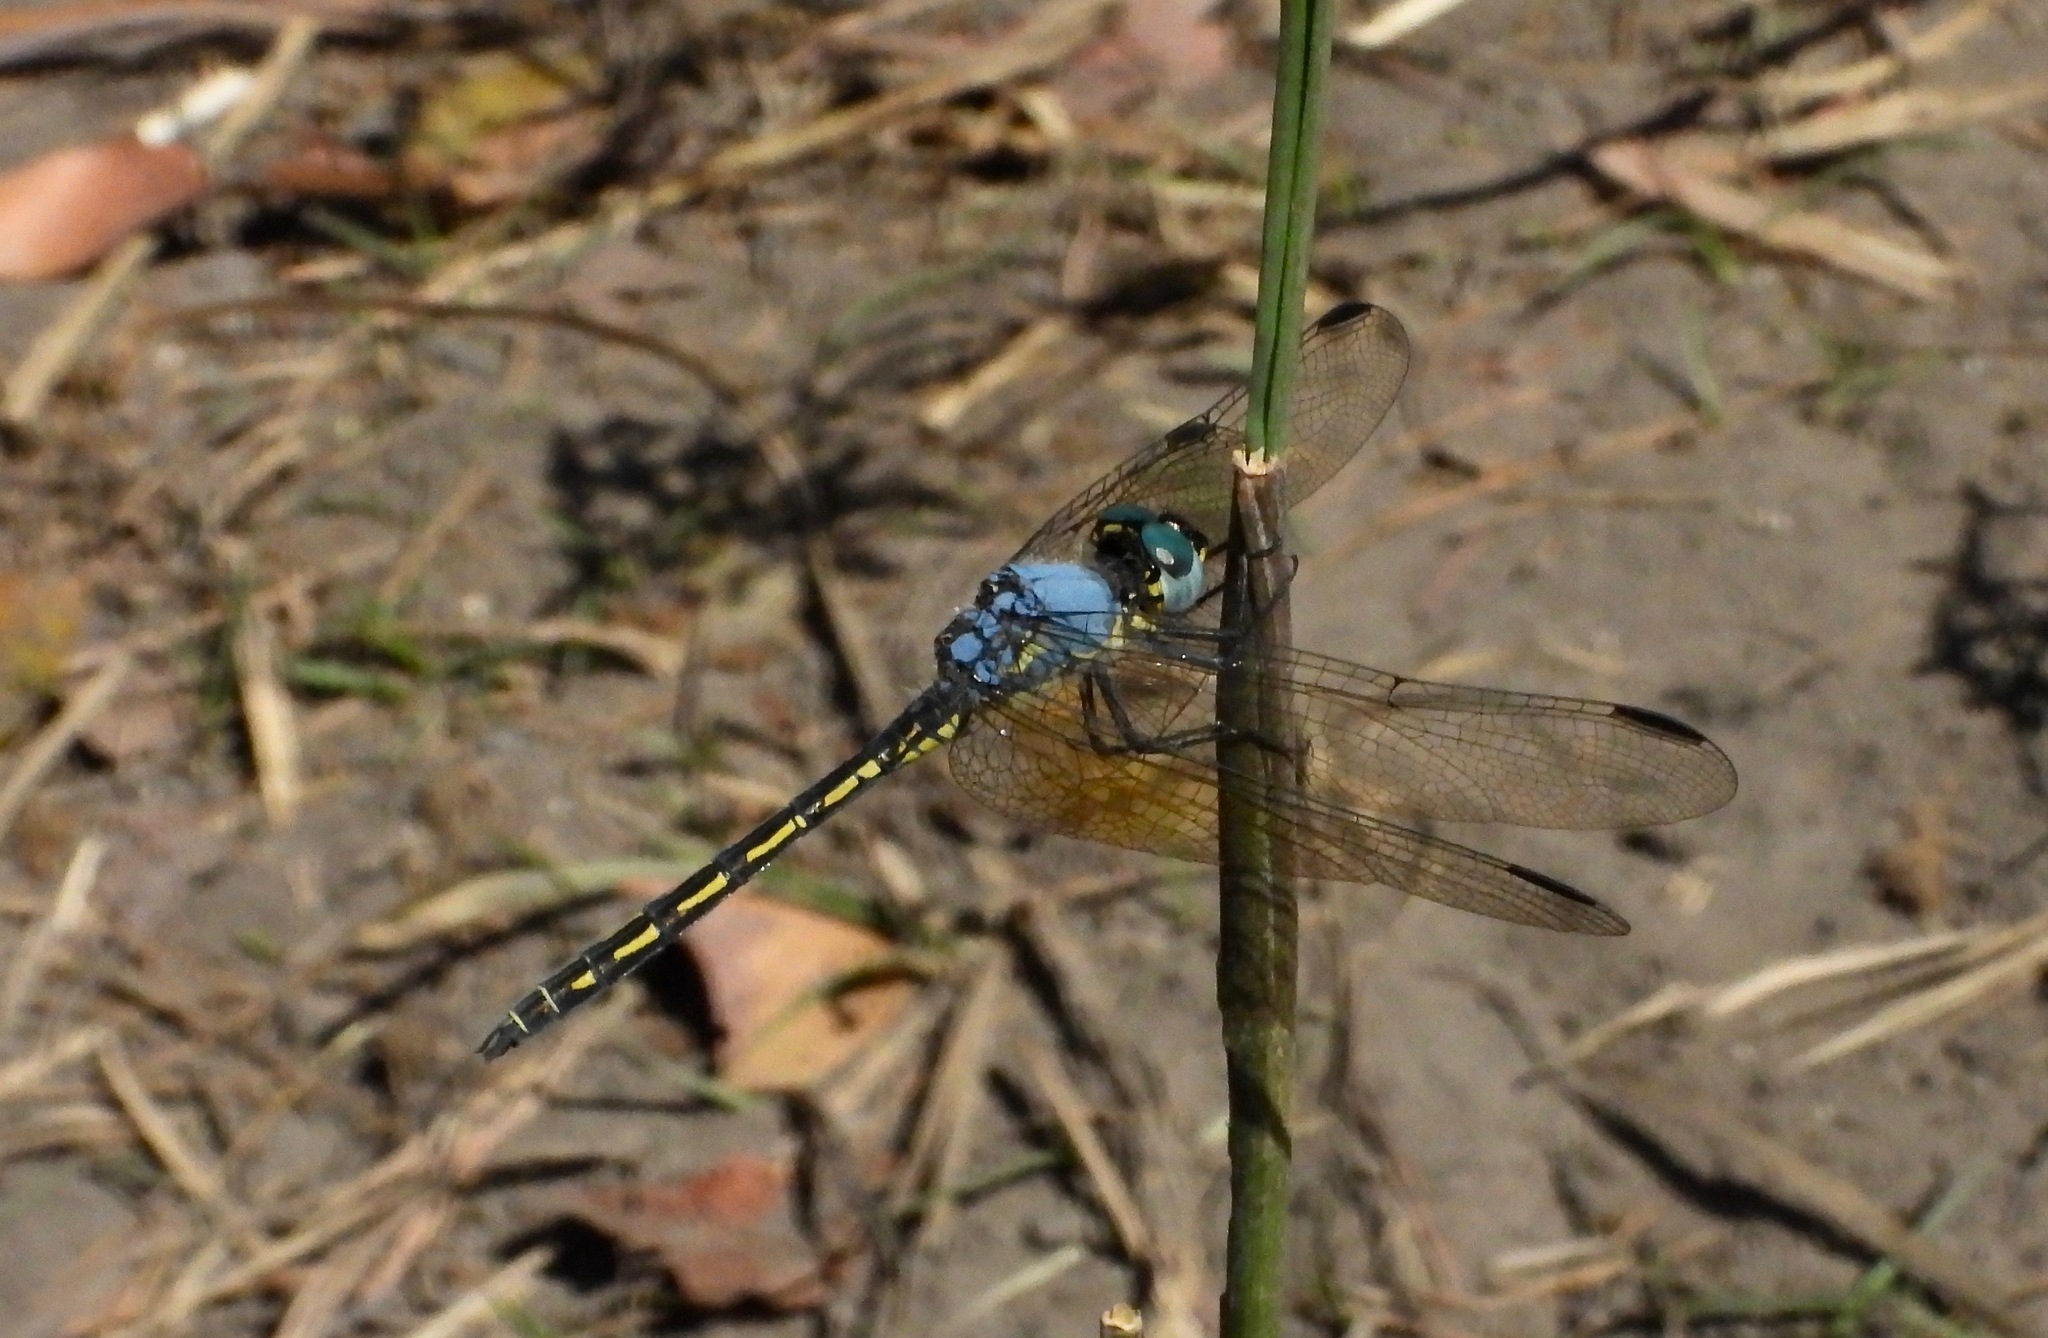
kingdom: Animalia
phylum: Arthropoda
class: Insecta
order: Odonata
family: Libellulidae
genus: Trithemis
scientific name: Trithemis stictica
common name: Jaunty dropwing
